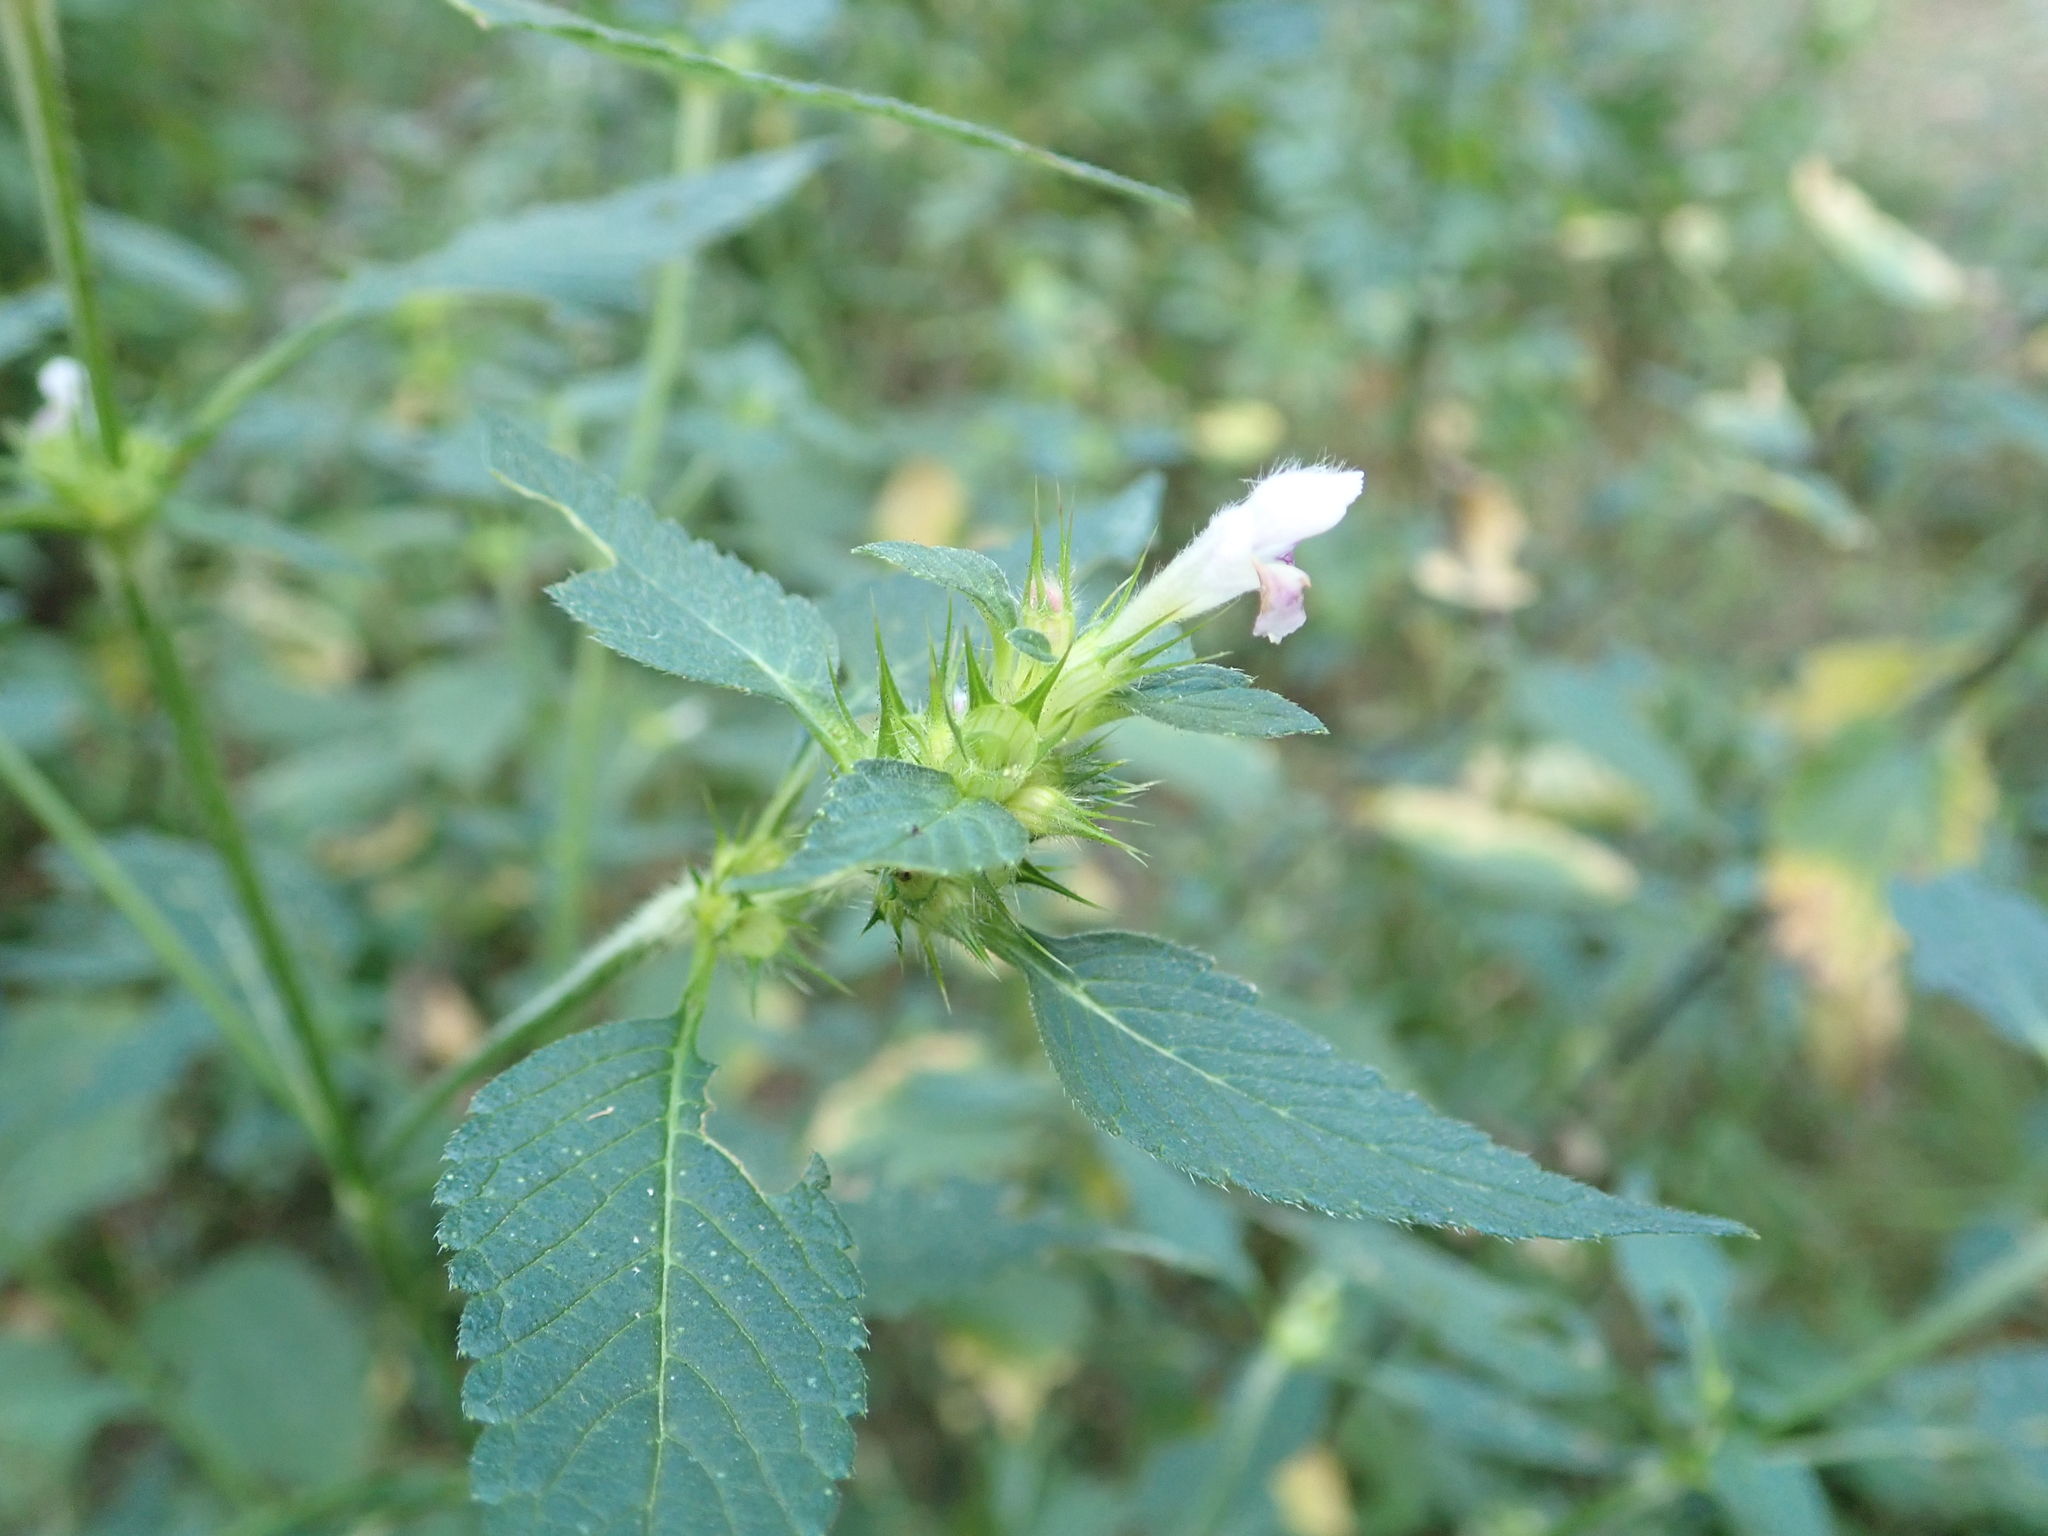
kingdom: Plantae
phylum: Tracheophyta
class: Magnoliopsida
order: Lamiales
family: Lamiaceae
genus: Galeopsis
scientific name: Galeopsis tetrahit
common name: Common hemp-nettle
